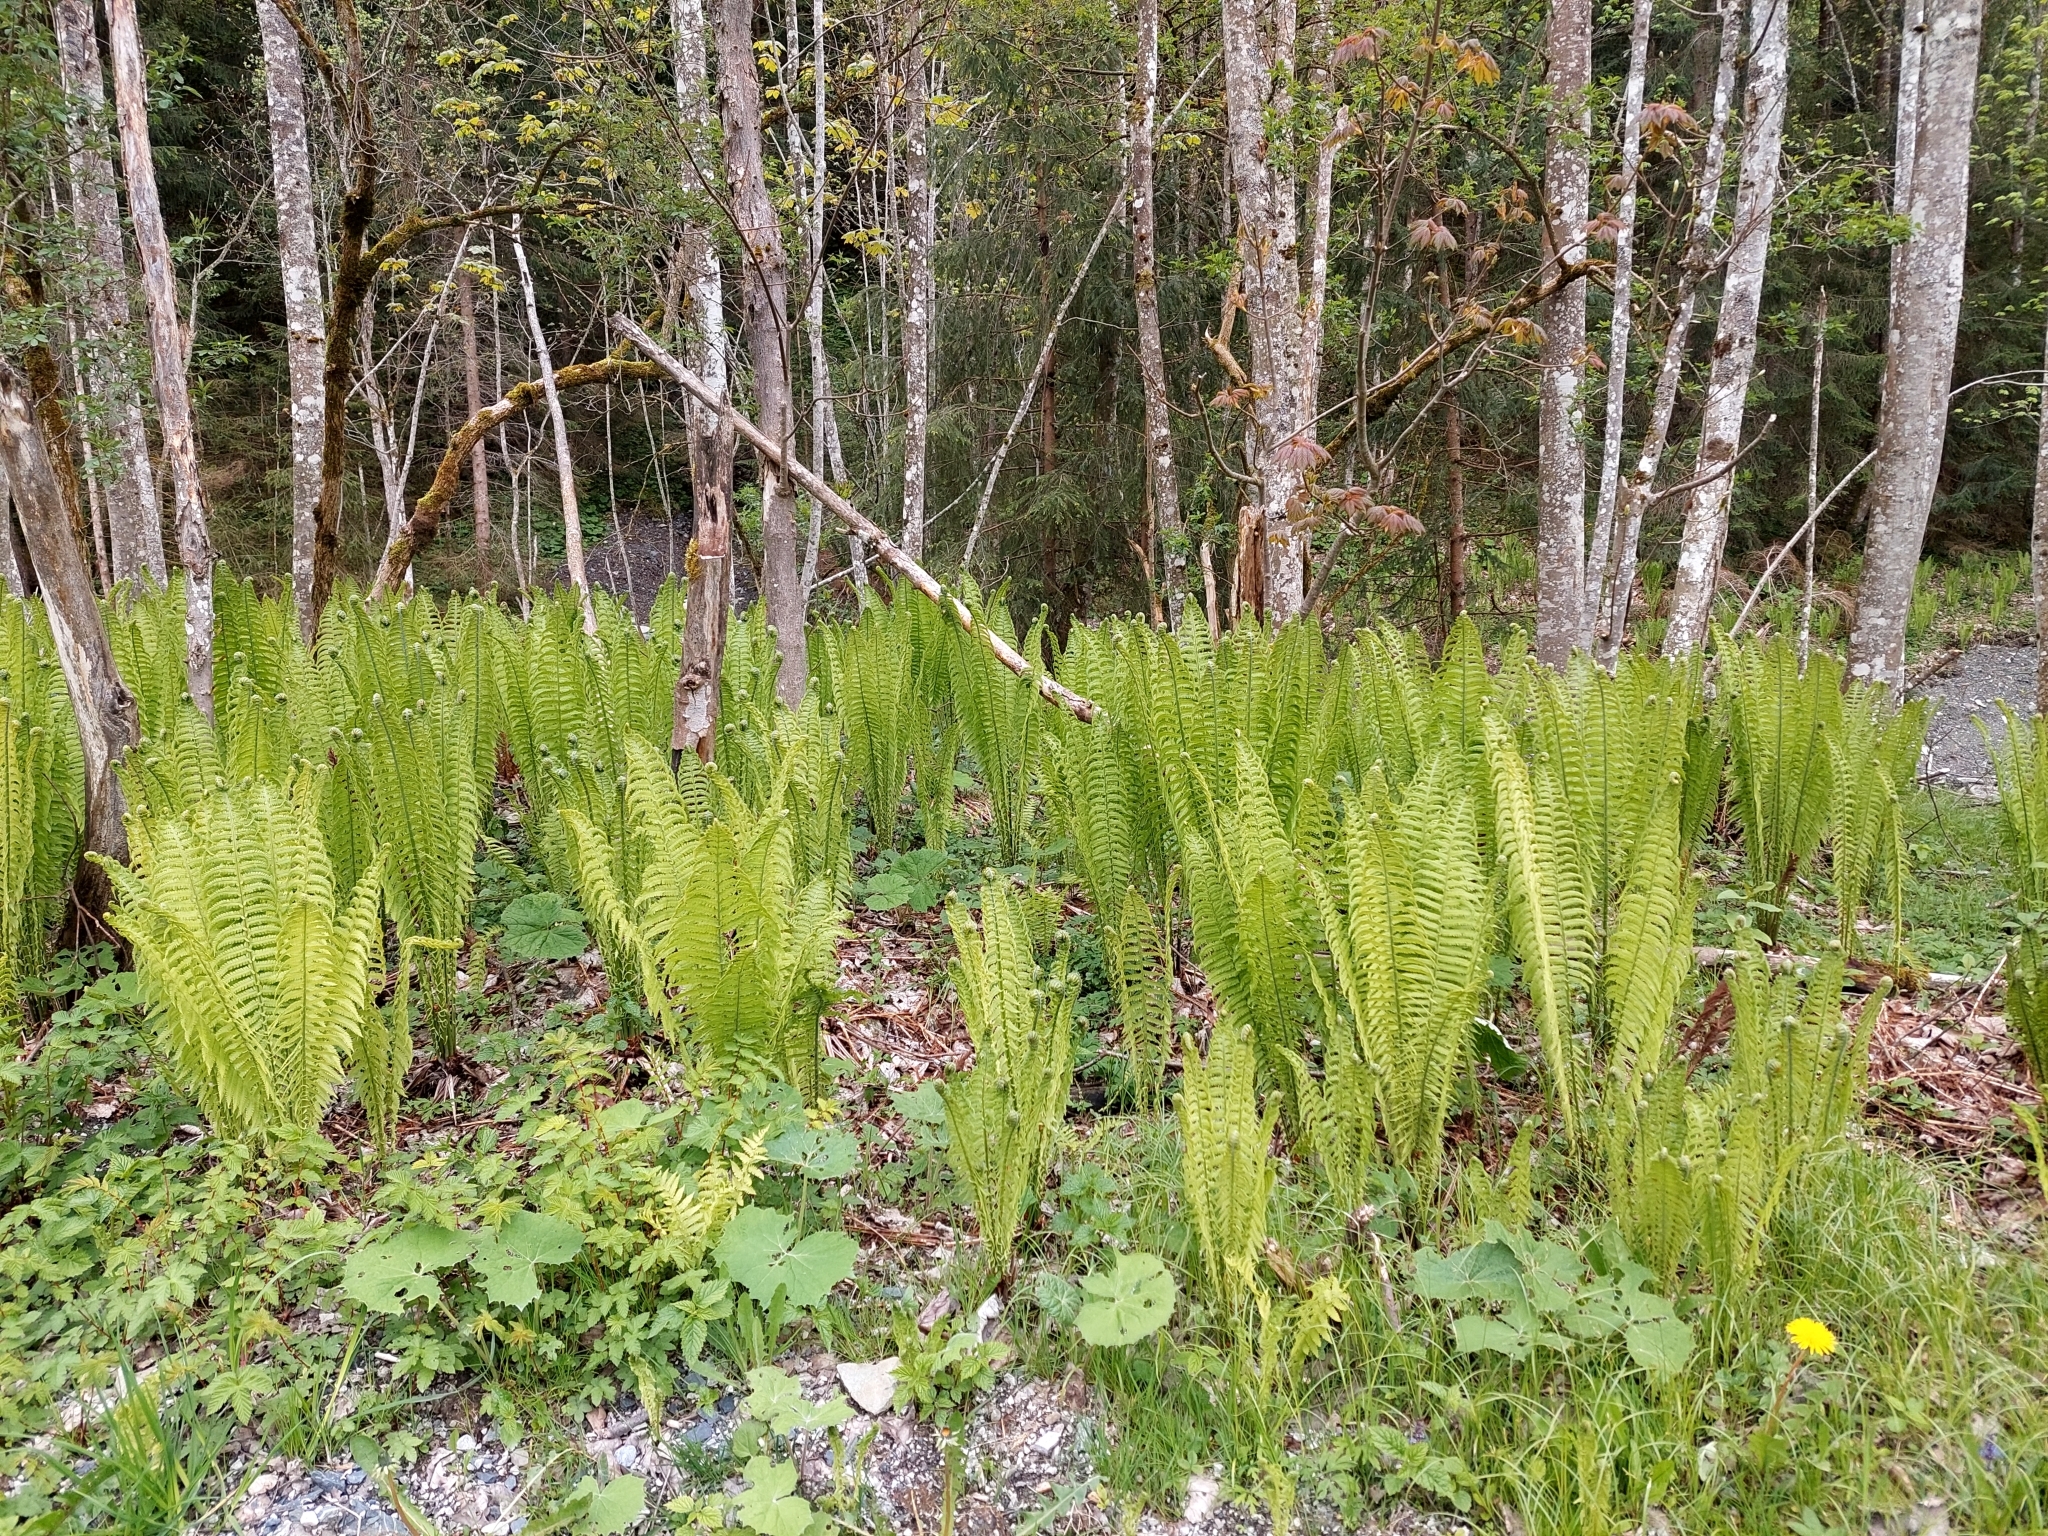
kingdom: Plantae
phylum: Tracheophyta
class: Polypodiopsida
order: Polypodiales
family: Onocleaceae
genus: Matteuccia
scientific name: Matteuccia struthiopteris
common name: Ostrich fern
